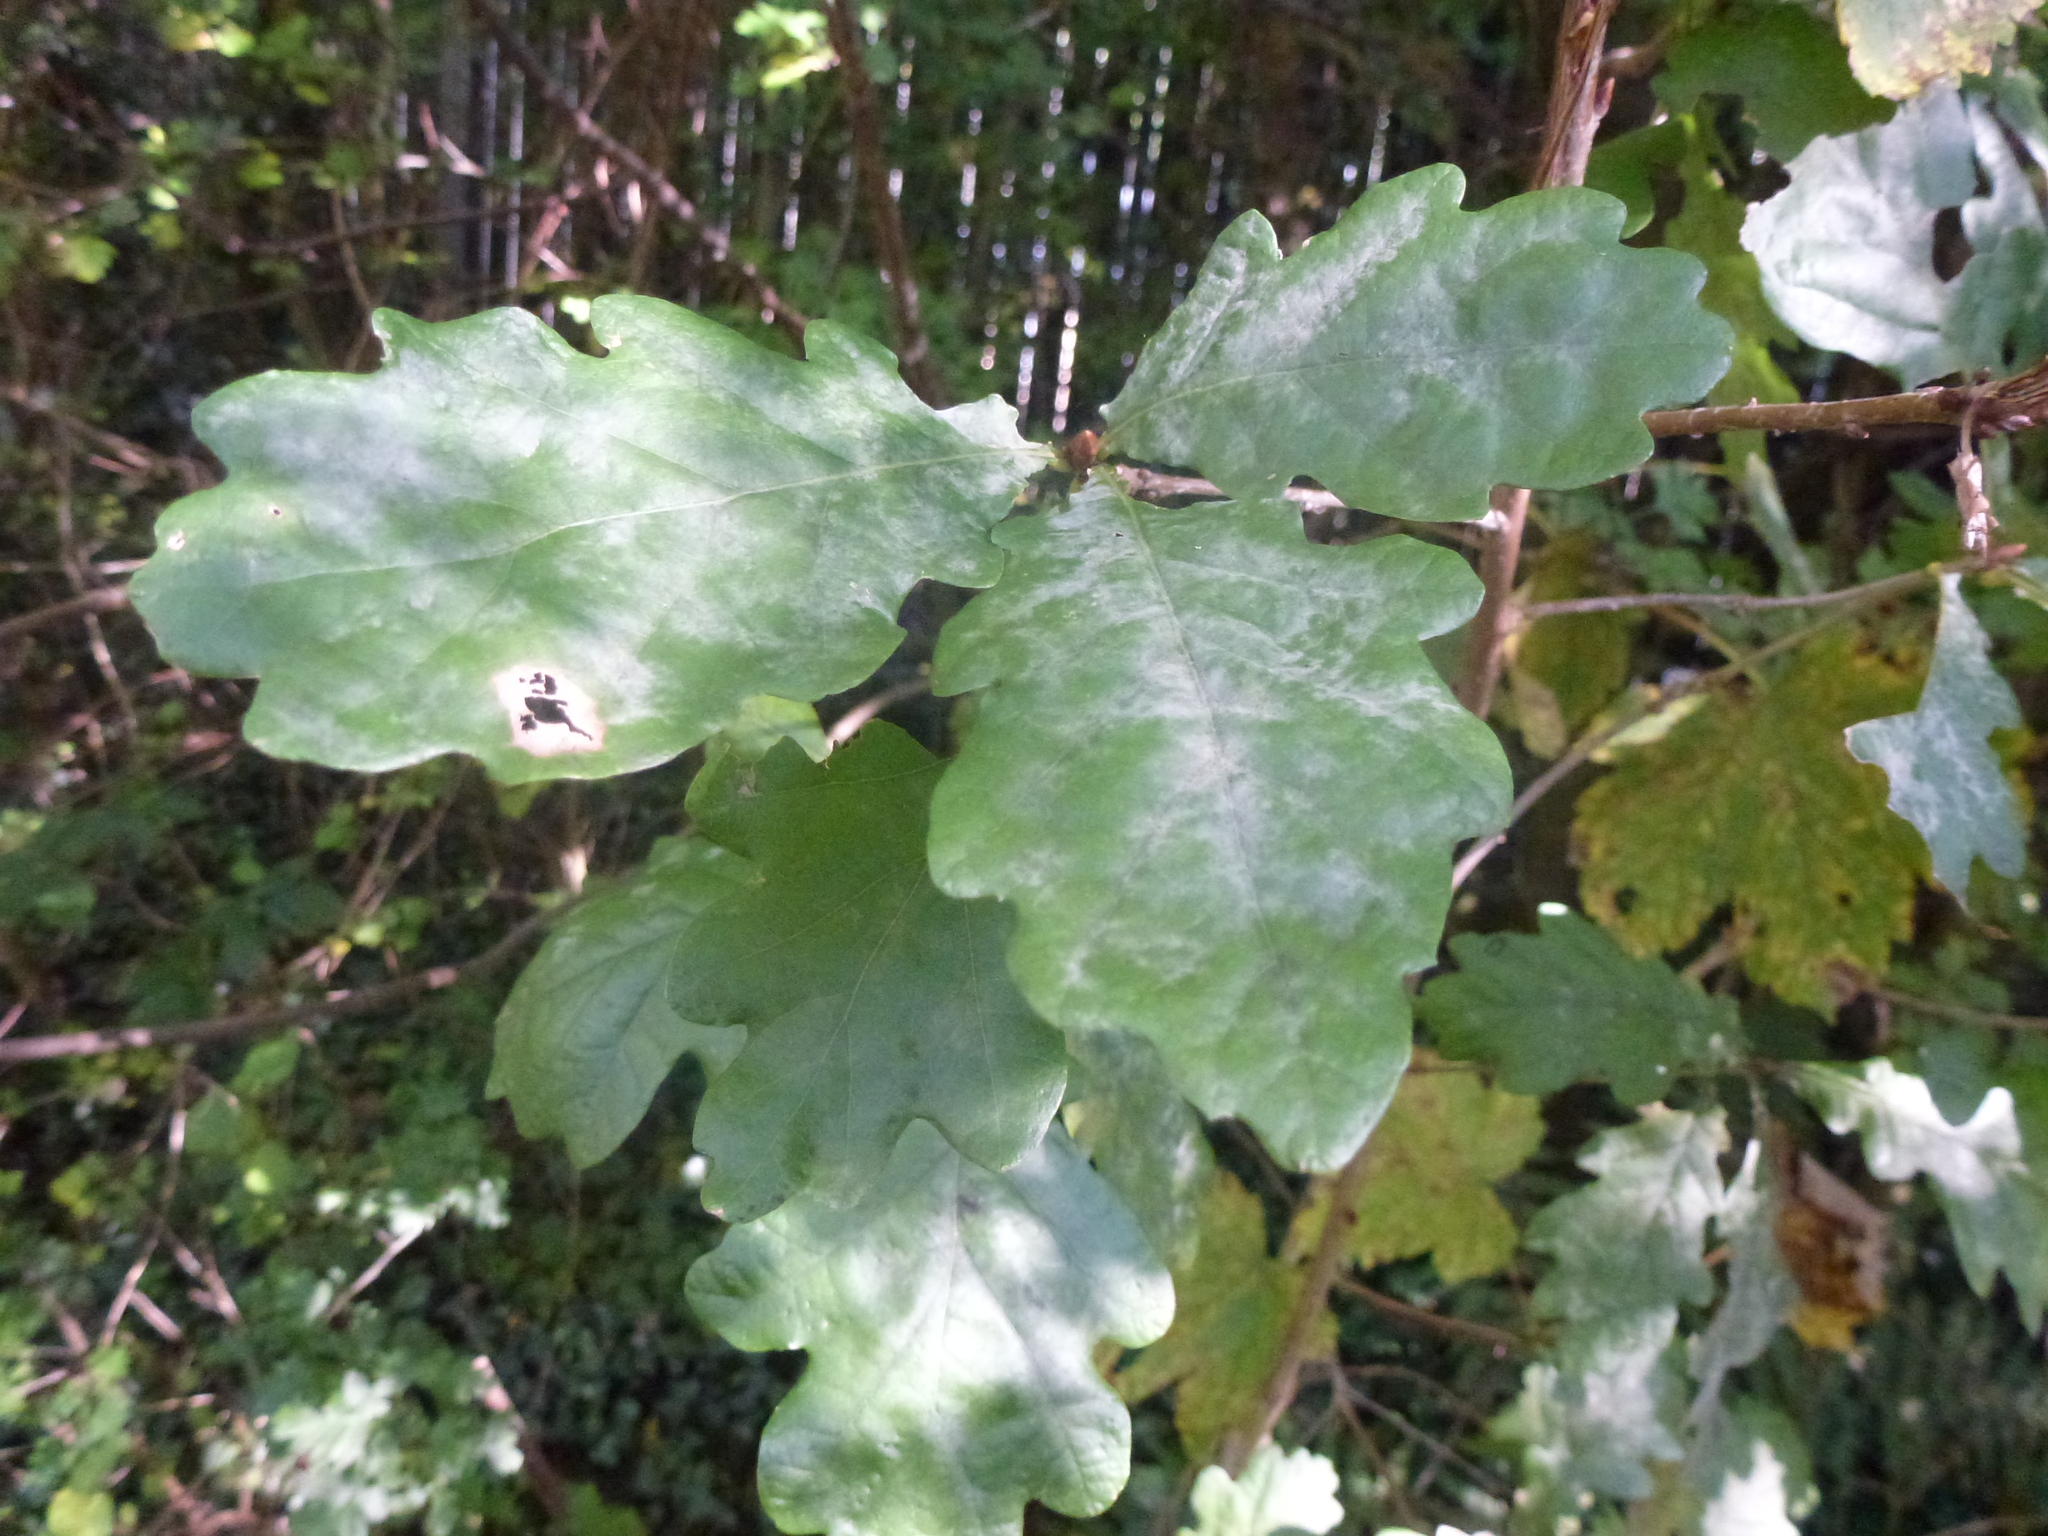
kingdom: Fungi
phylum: Ascomycota
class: Leotiomycetes
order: Helotiales
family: Erysiphaceae
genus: Erysiphe
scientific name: Erysiphe alphitoides
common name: Oak mildew
